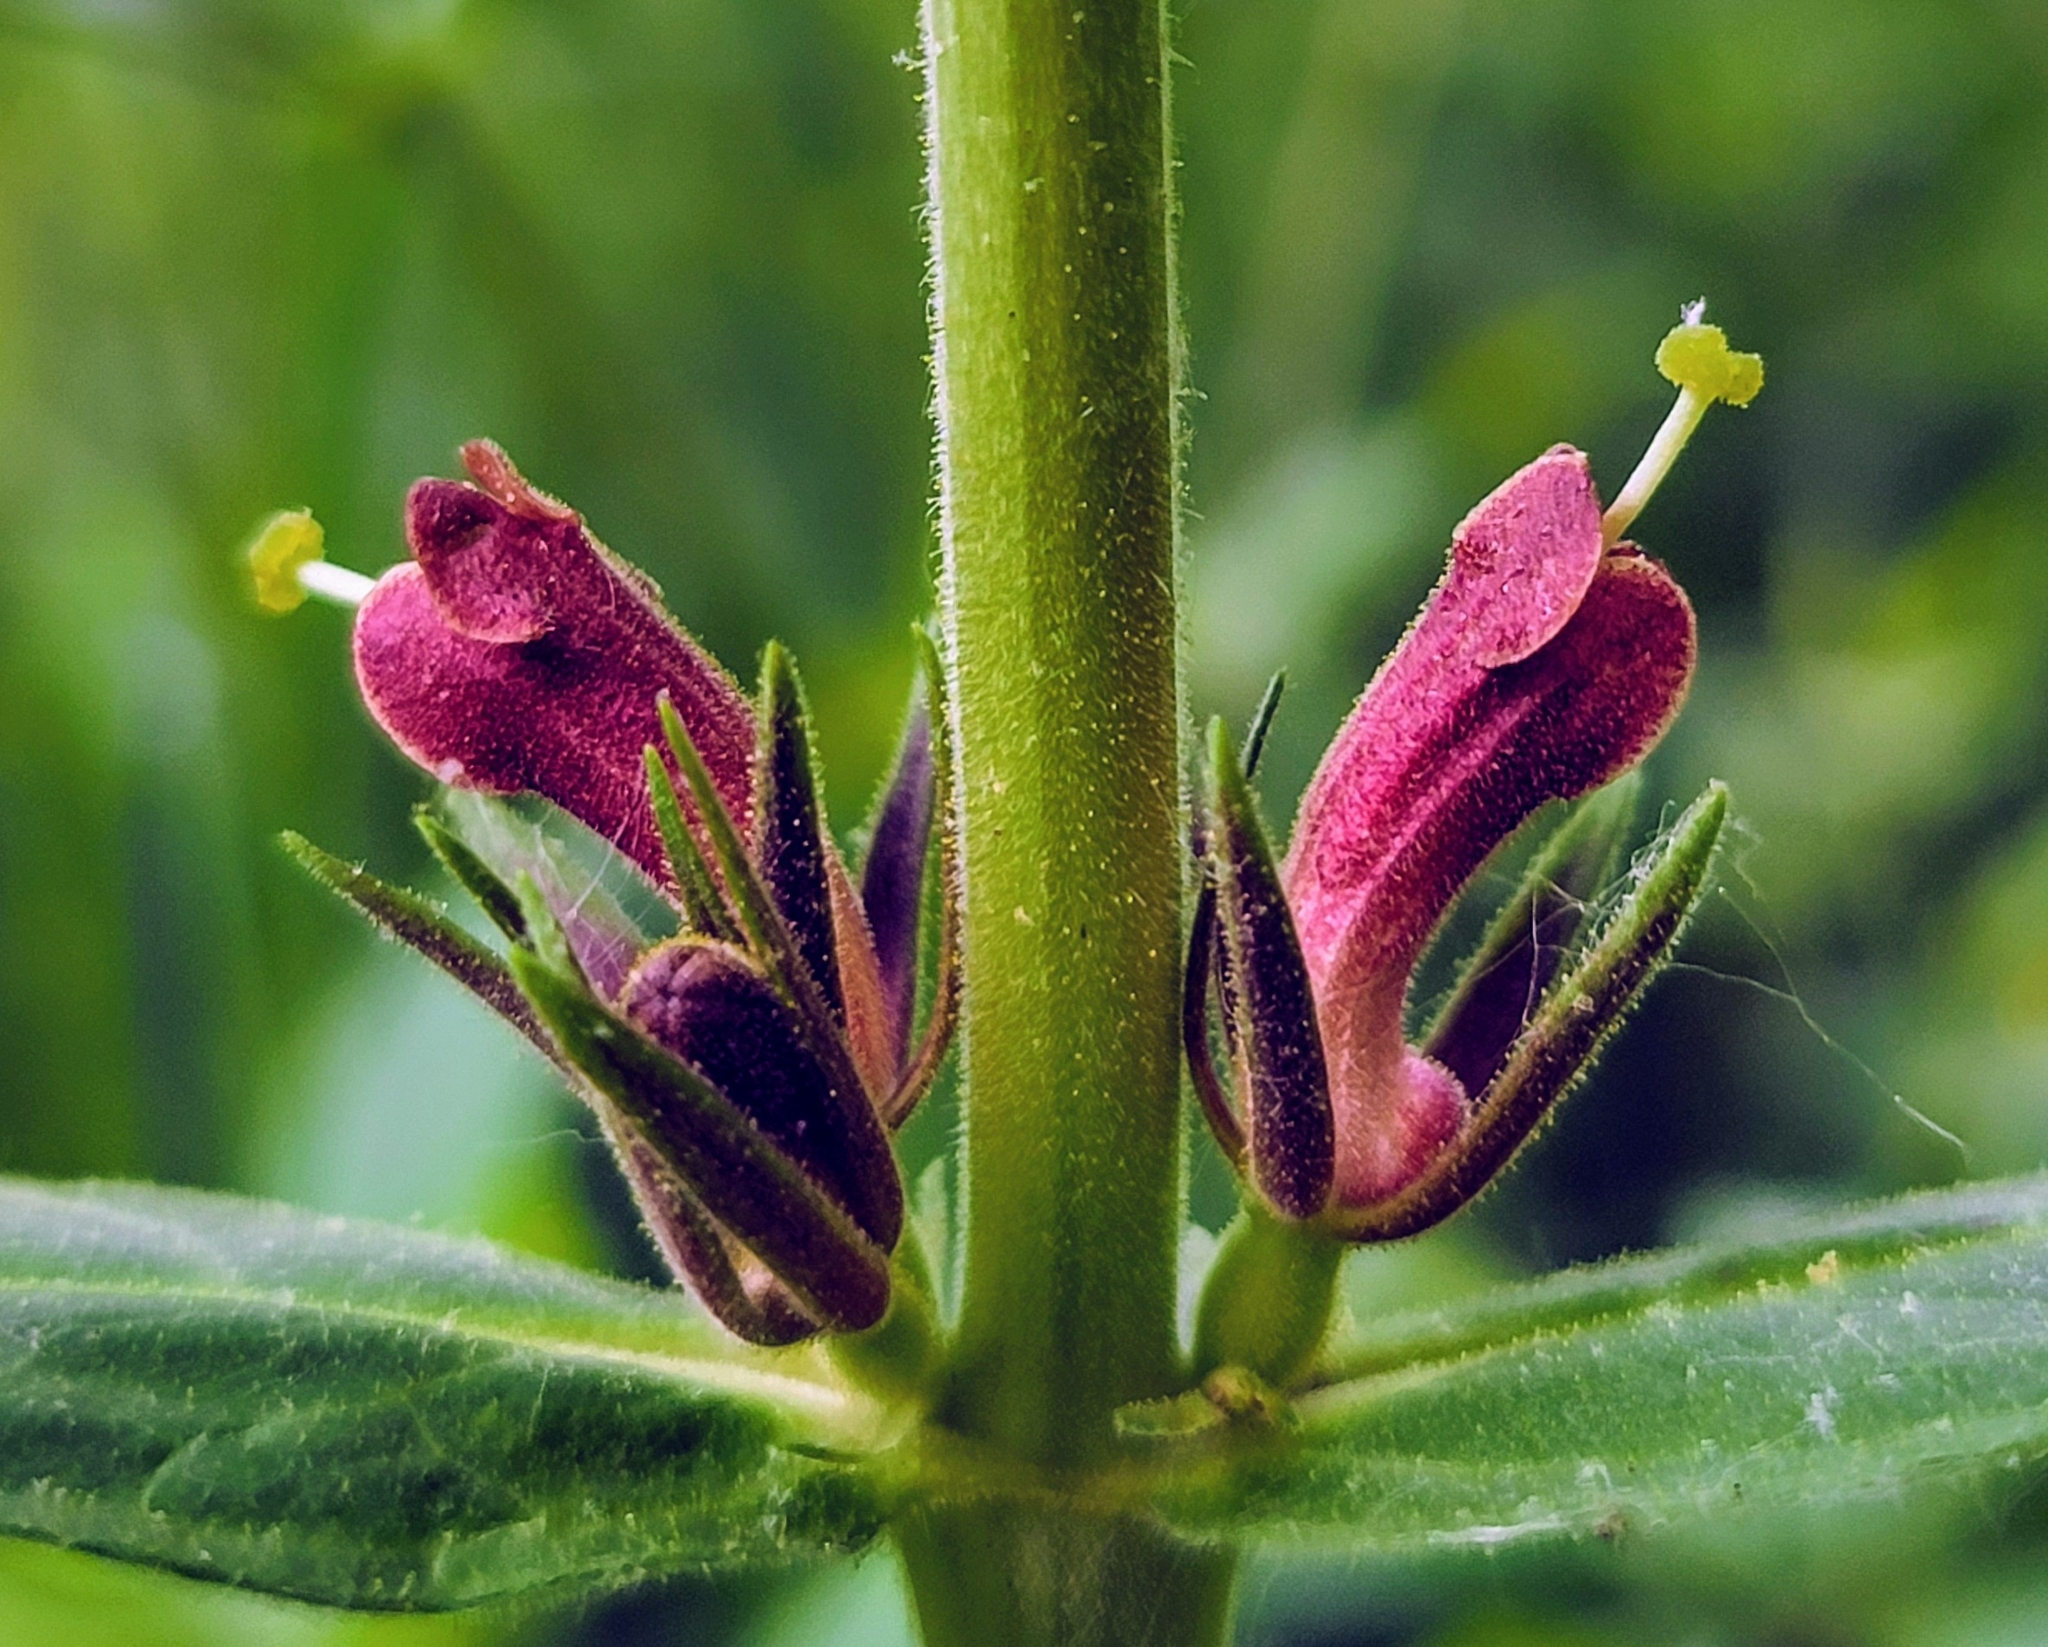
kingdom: Plantae
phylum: Tracheophyta
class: Magnoliopsida
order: Dipsacales
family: Caprifoliaceae
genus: Triosteum
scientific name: Triosteum perfoliatum
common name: Common horse-gentian
